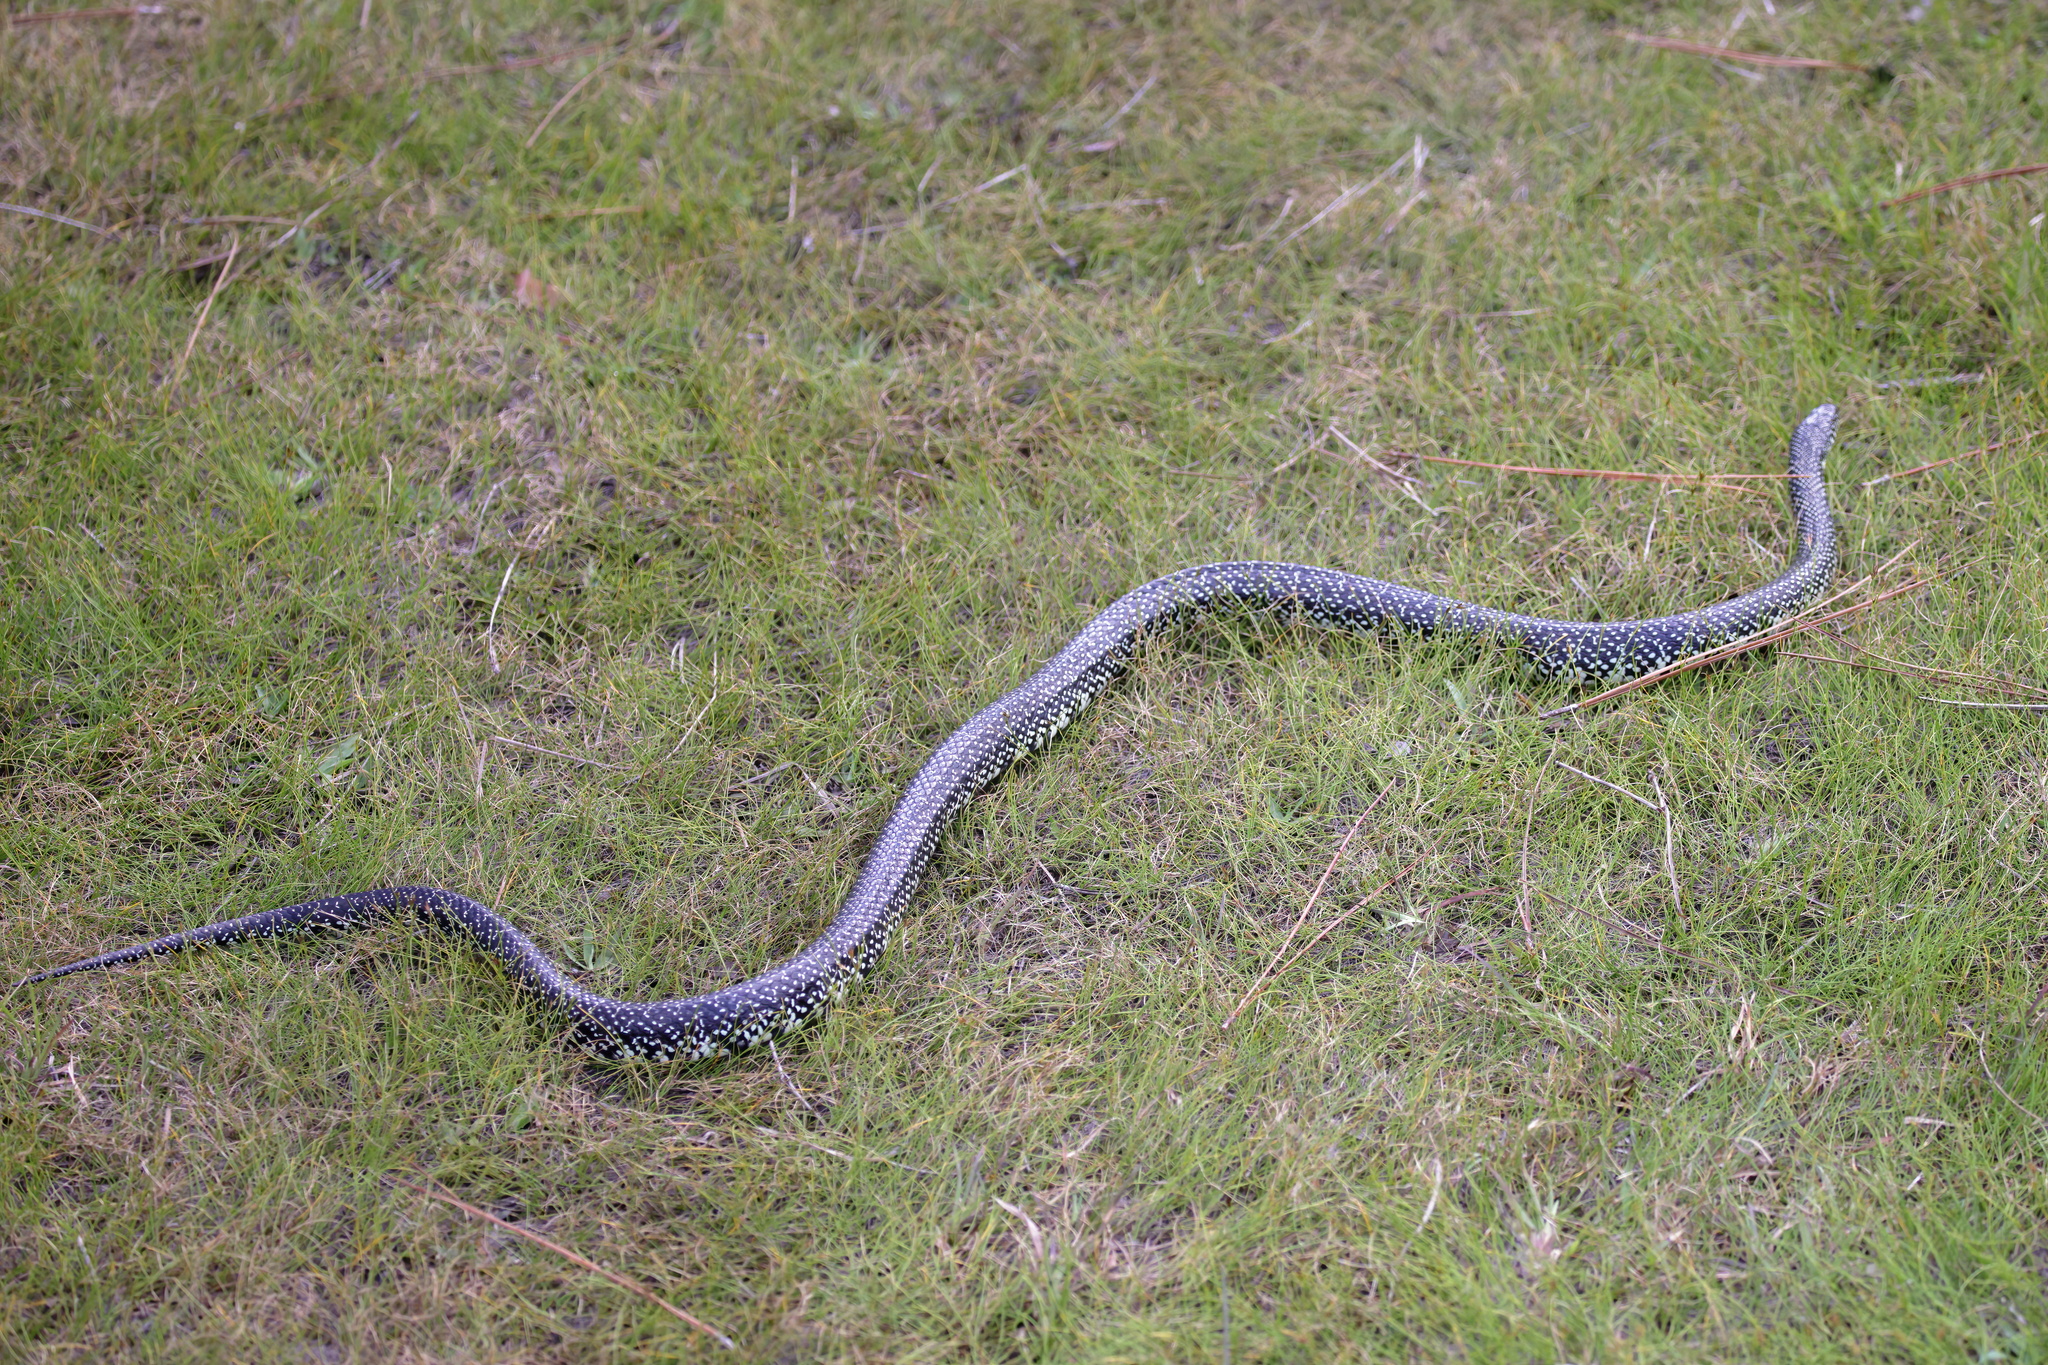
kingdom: Animalia
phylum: Chordata
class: Squamata
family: Colubridae
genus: Lampropeltis
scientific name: Lampropeltis holbrooki
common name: Speckled kingsnake
